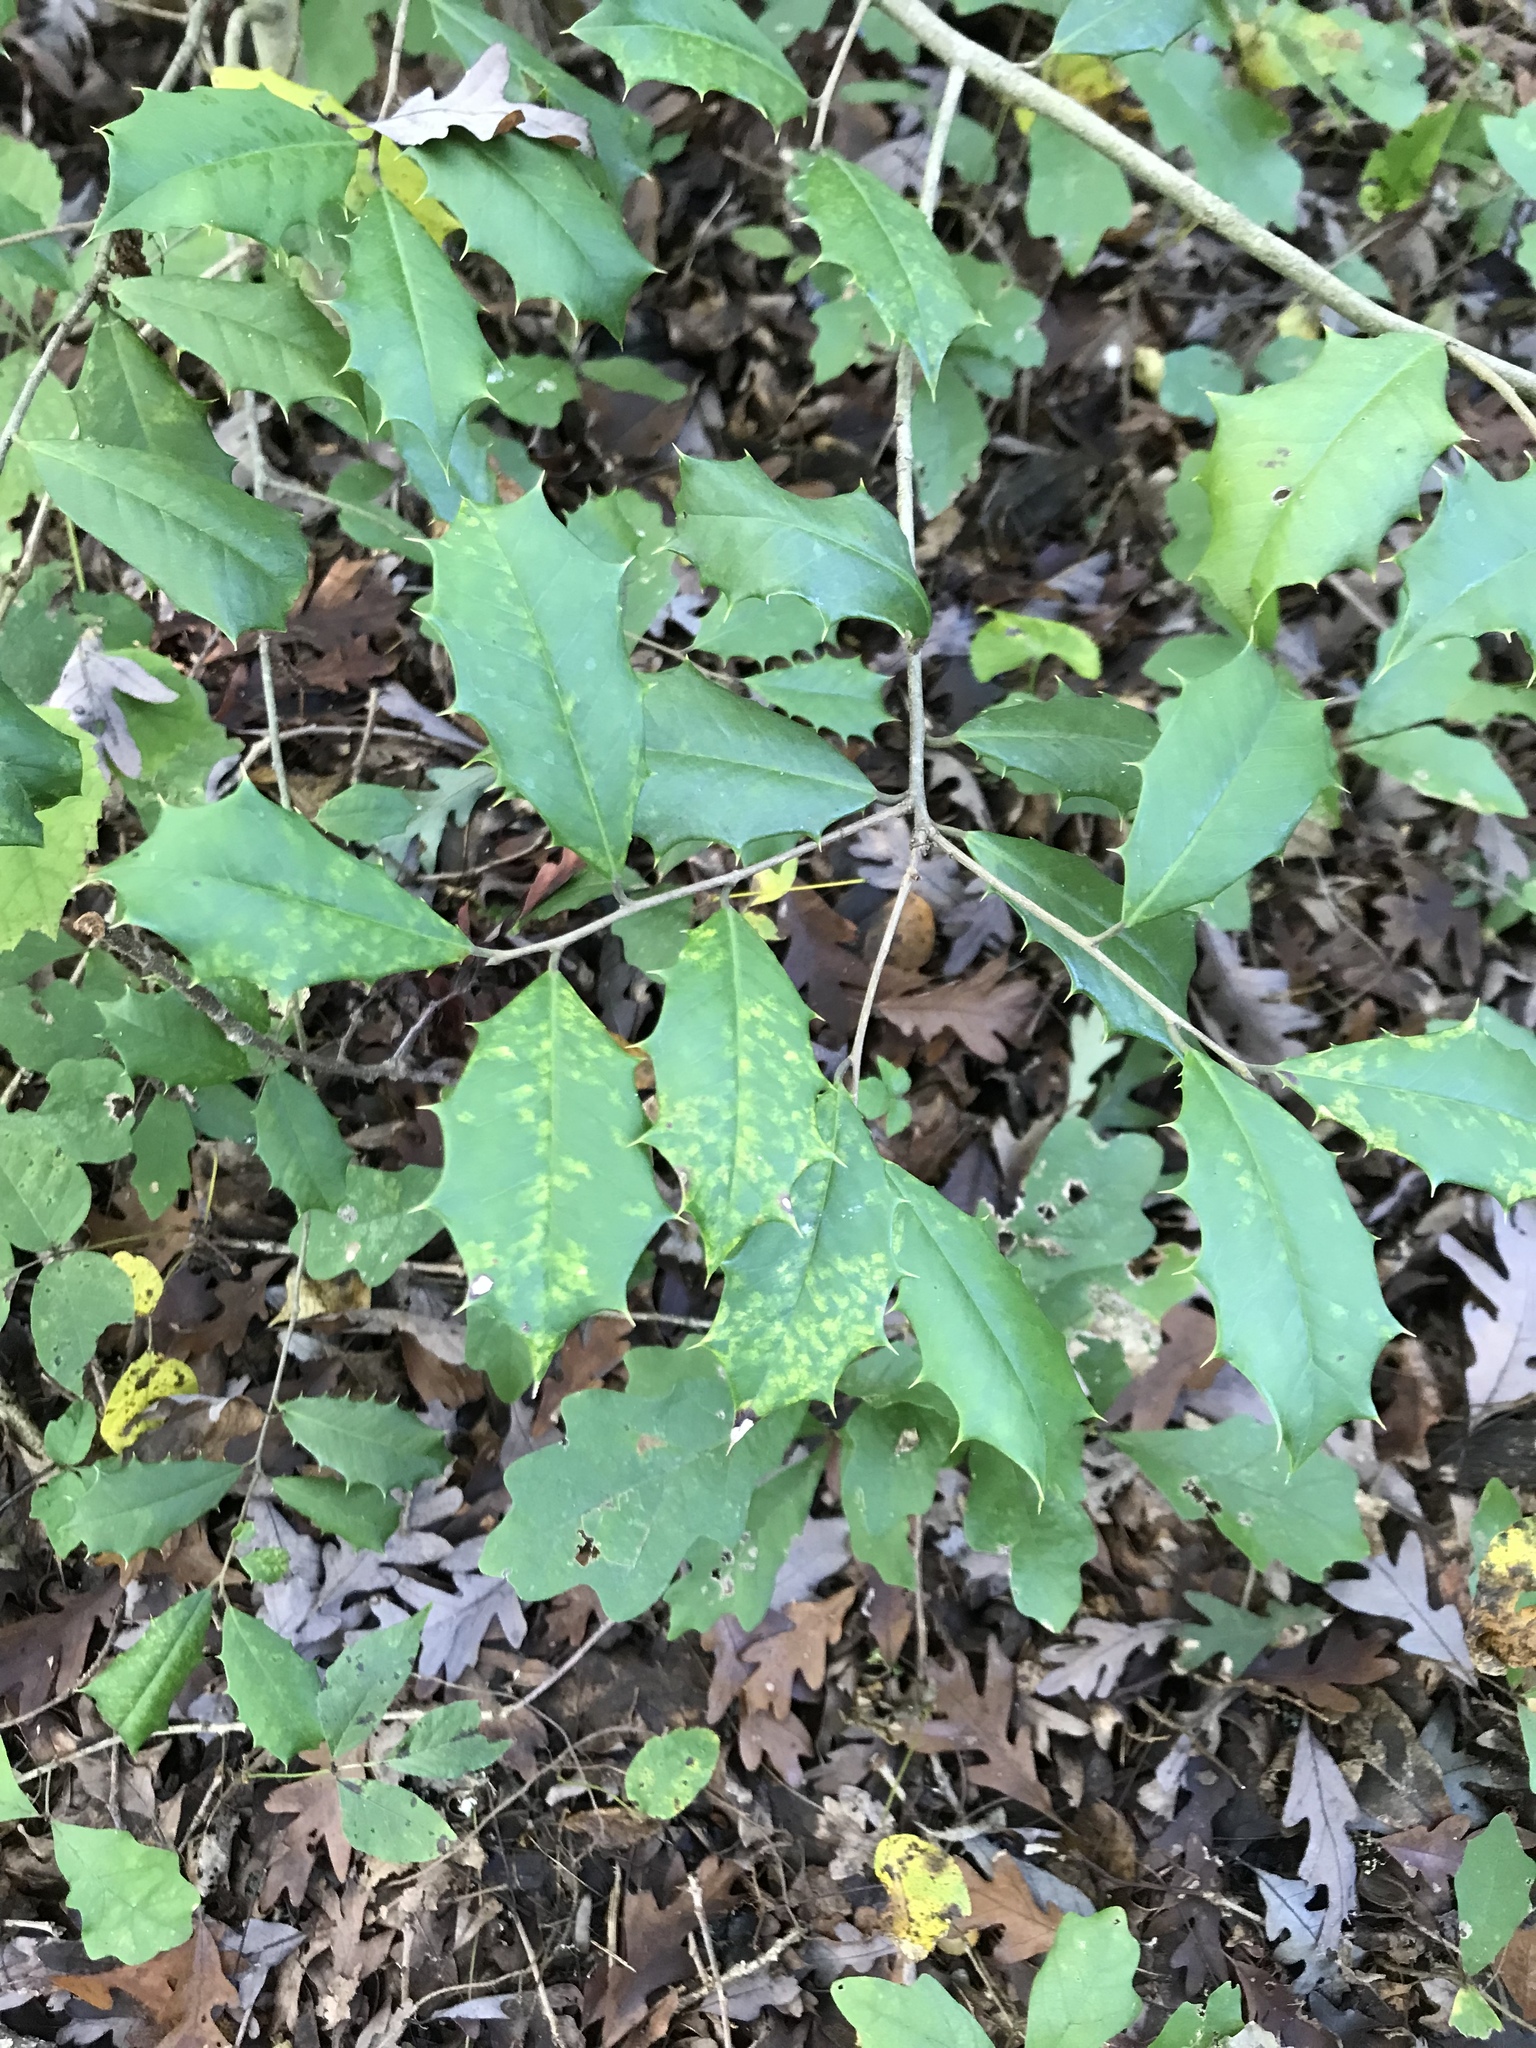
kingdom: Plantae
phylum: Tracheophyta
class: Magnoliopsida
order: Aquifoliales
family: Aquifoliaceae
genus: Ilex
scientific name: Ilex opaca
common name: American holly
